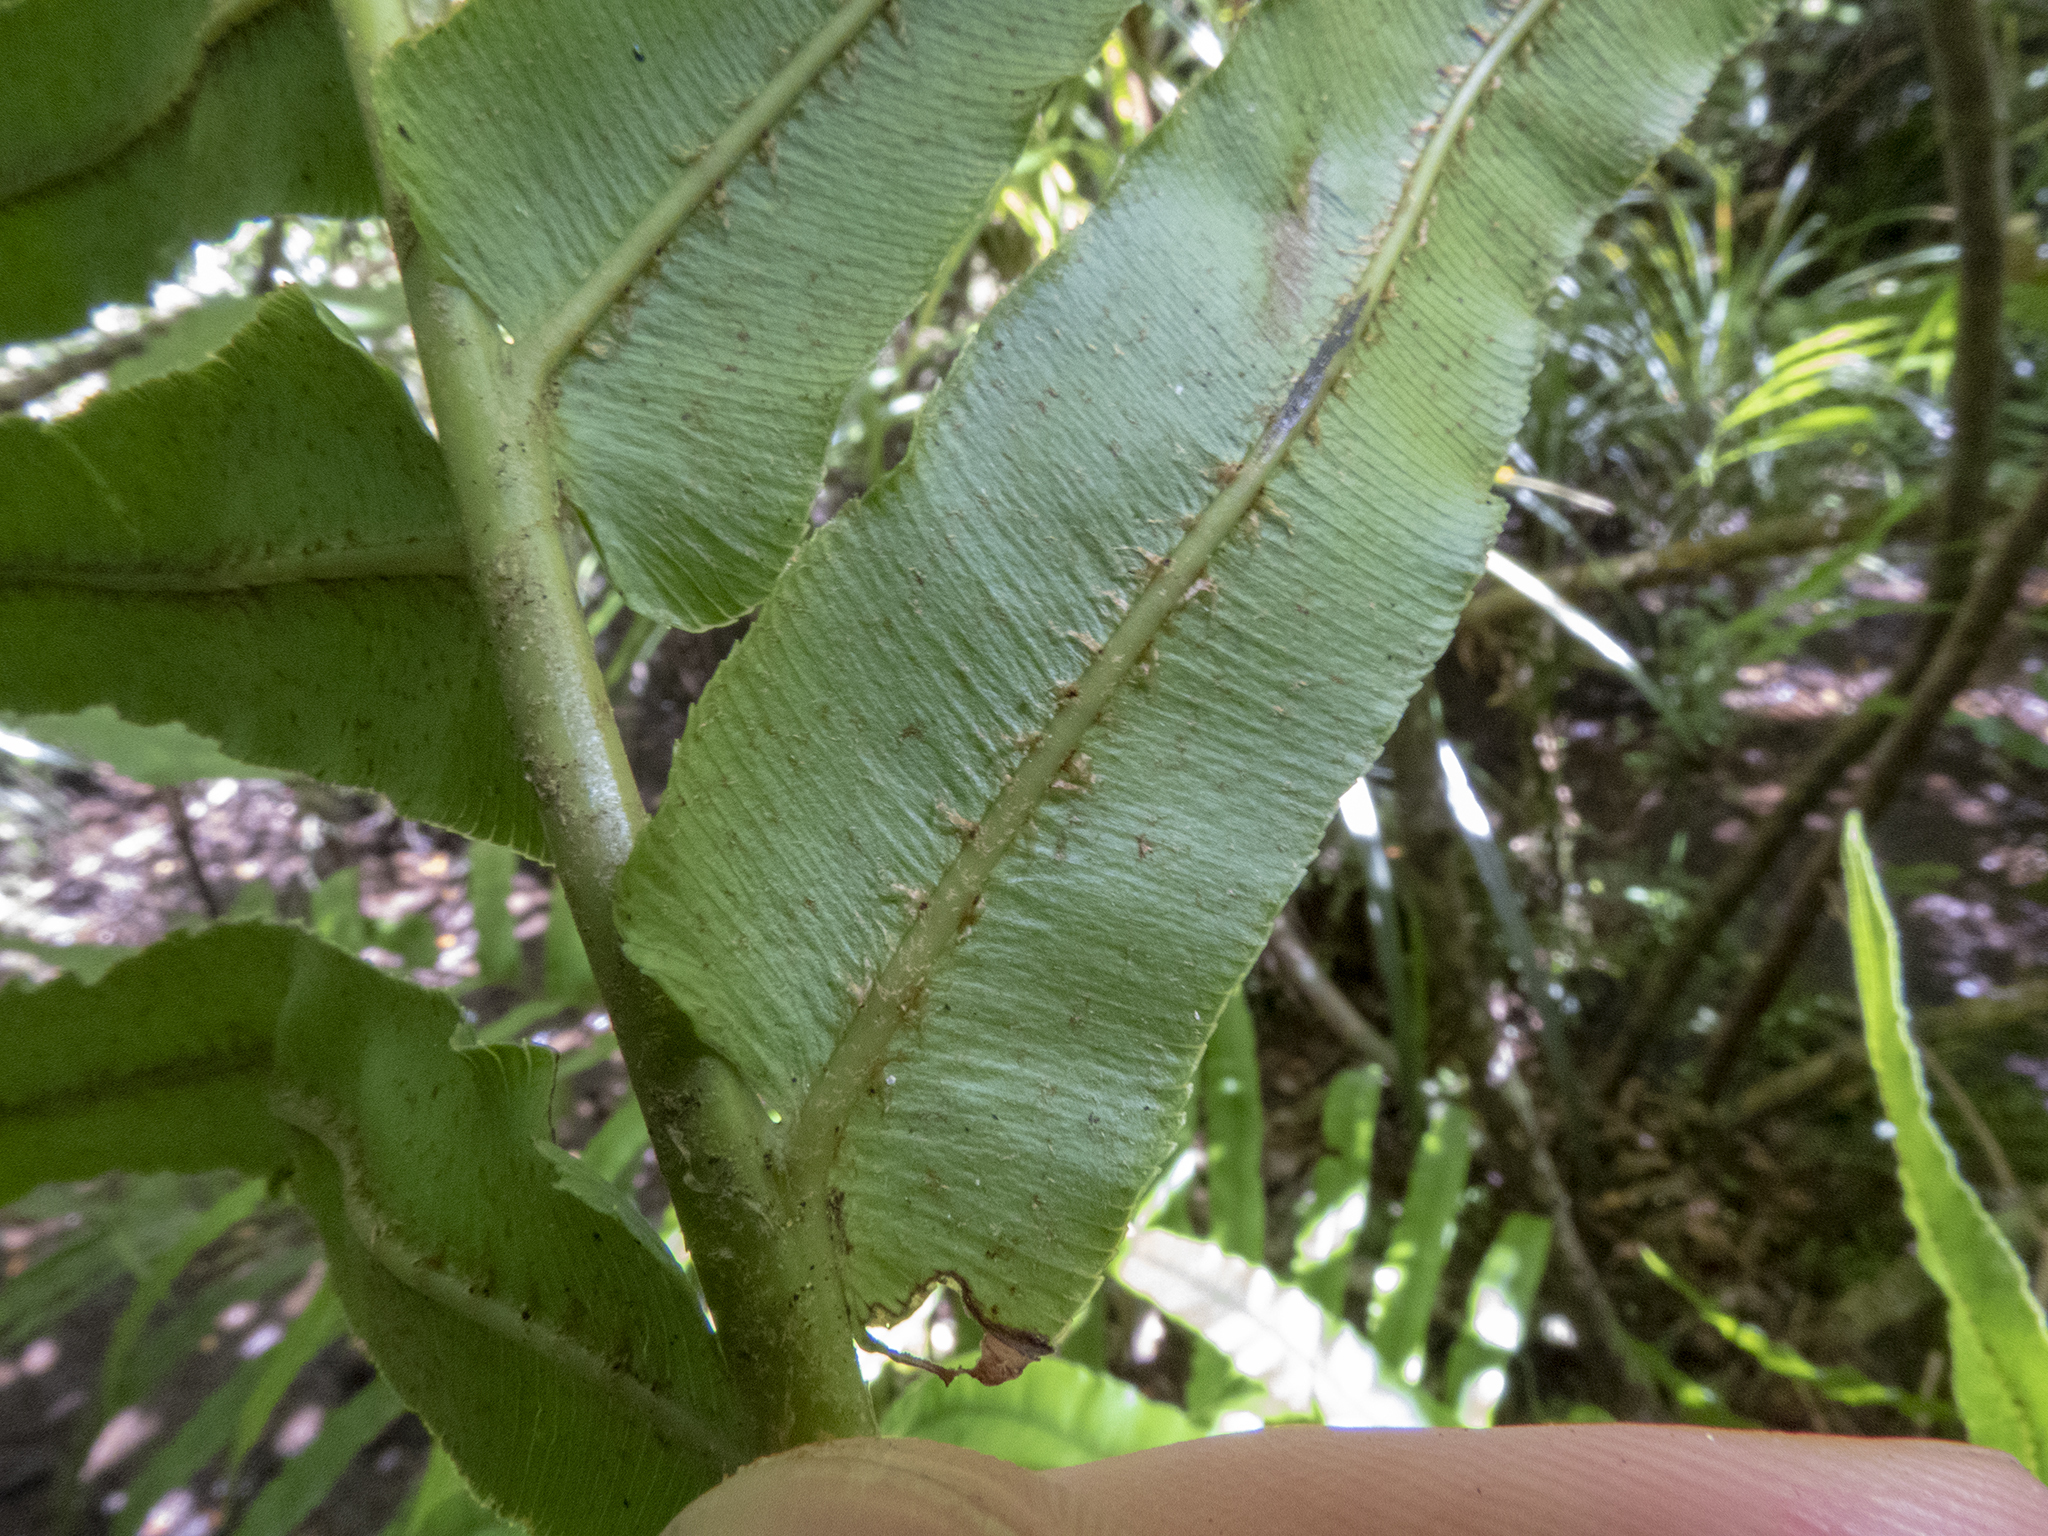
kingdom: Plantae
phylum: Tracheophyta
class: Polypodiopsida
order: Polypodiales
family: Blechnaceae
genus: Parablechnum
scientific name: Parablechnum novae-zelandiae
